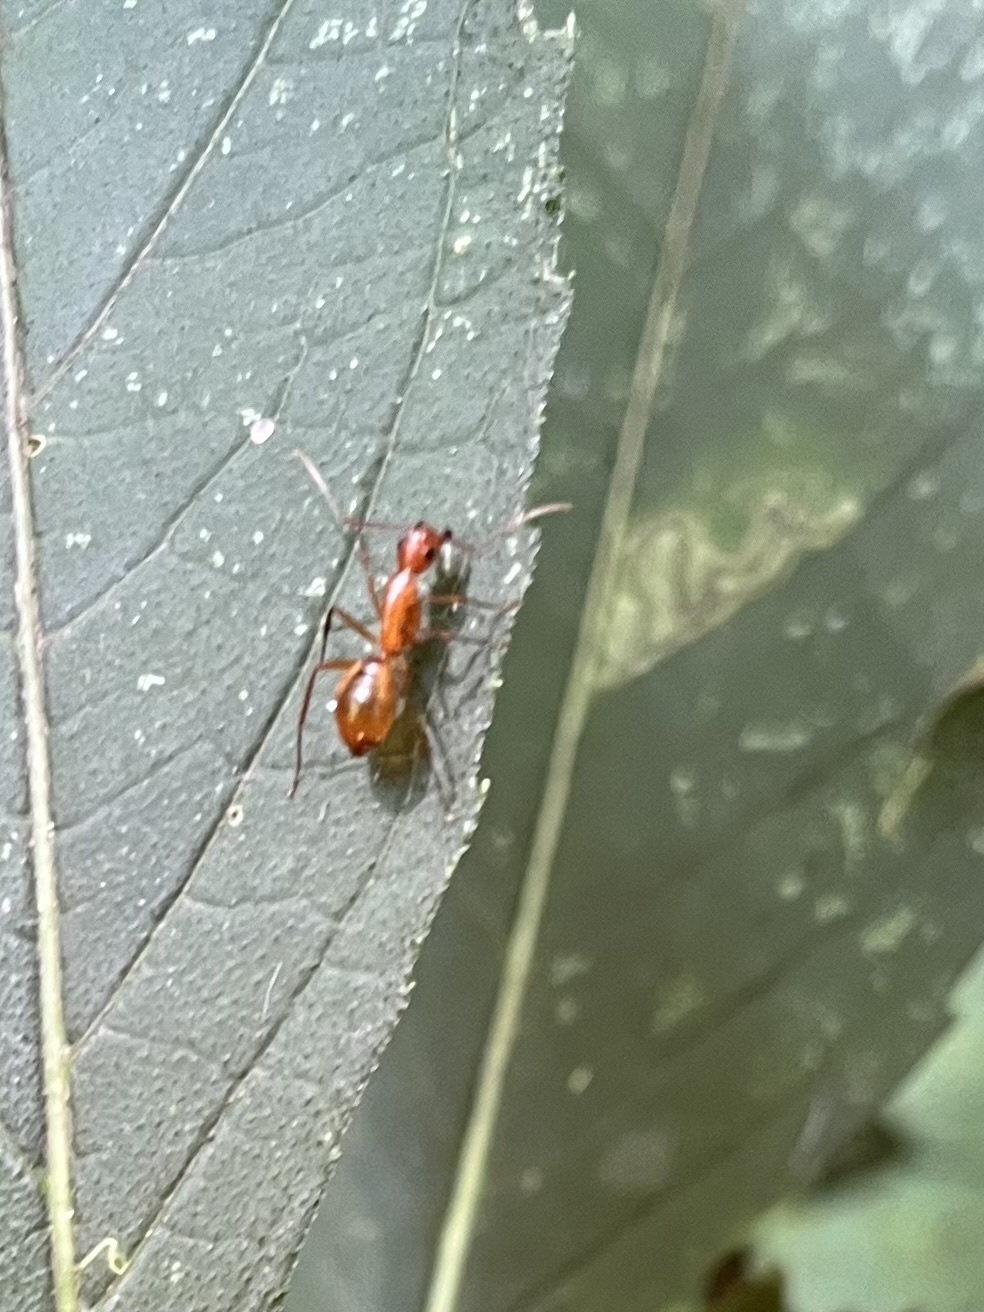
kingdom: Animalia
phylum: Arthropoda
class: Insecta
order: Hymenoptera
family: Formicidae
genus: Camponotus
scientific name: Camponotus castaneus
